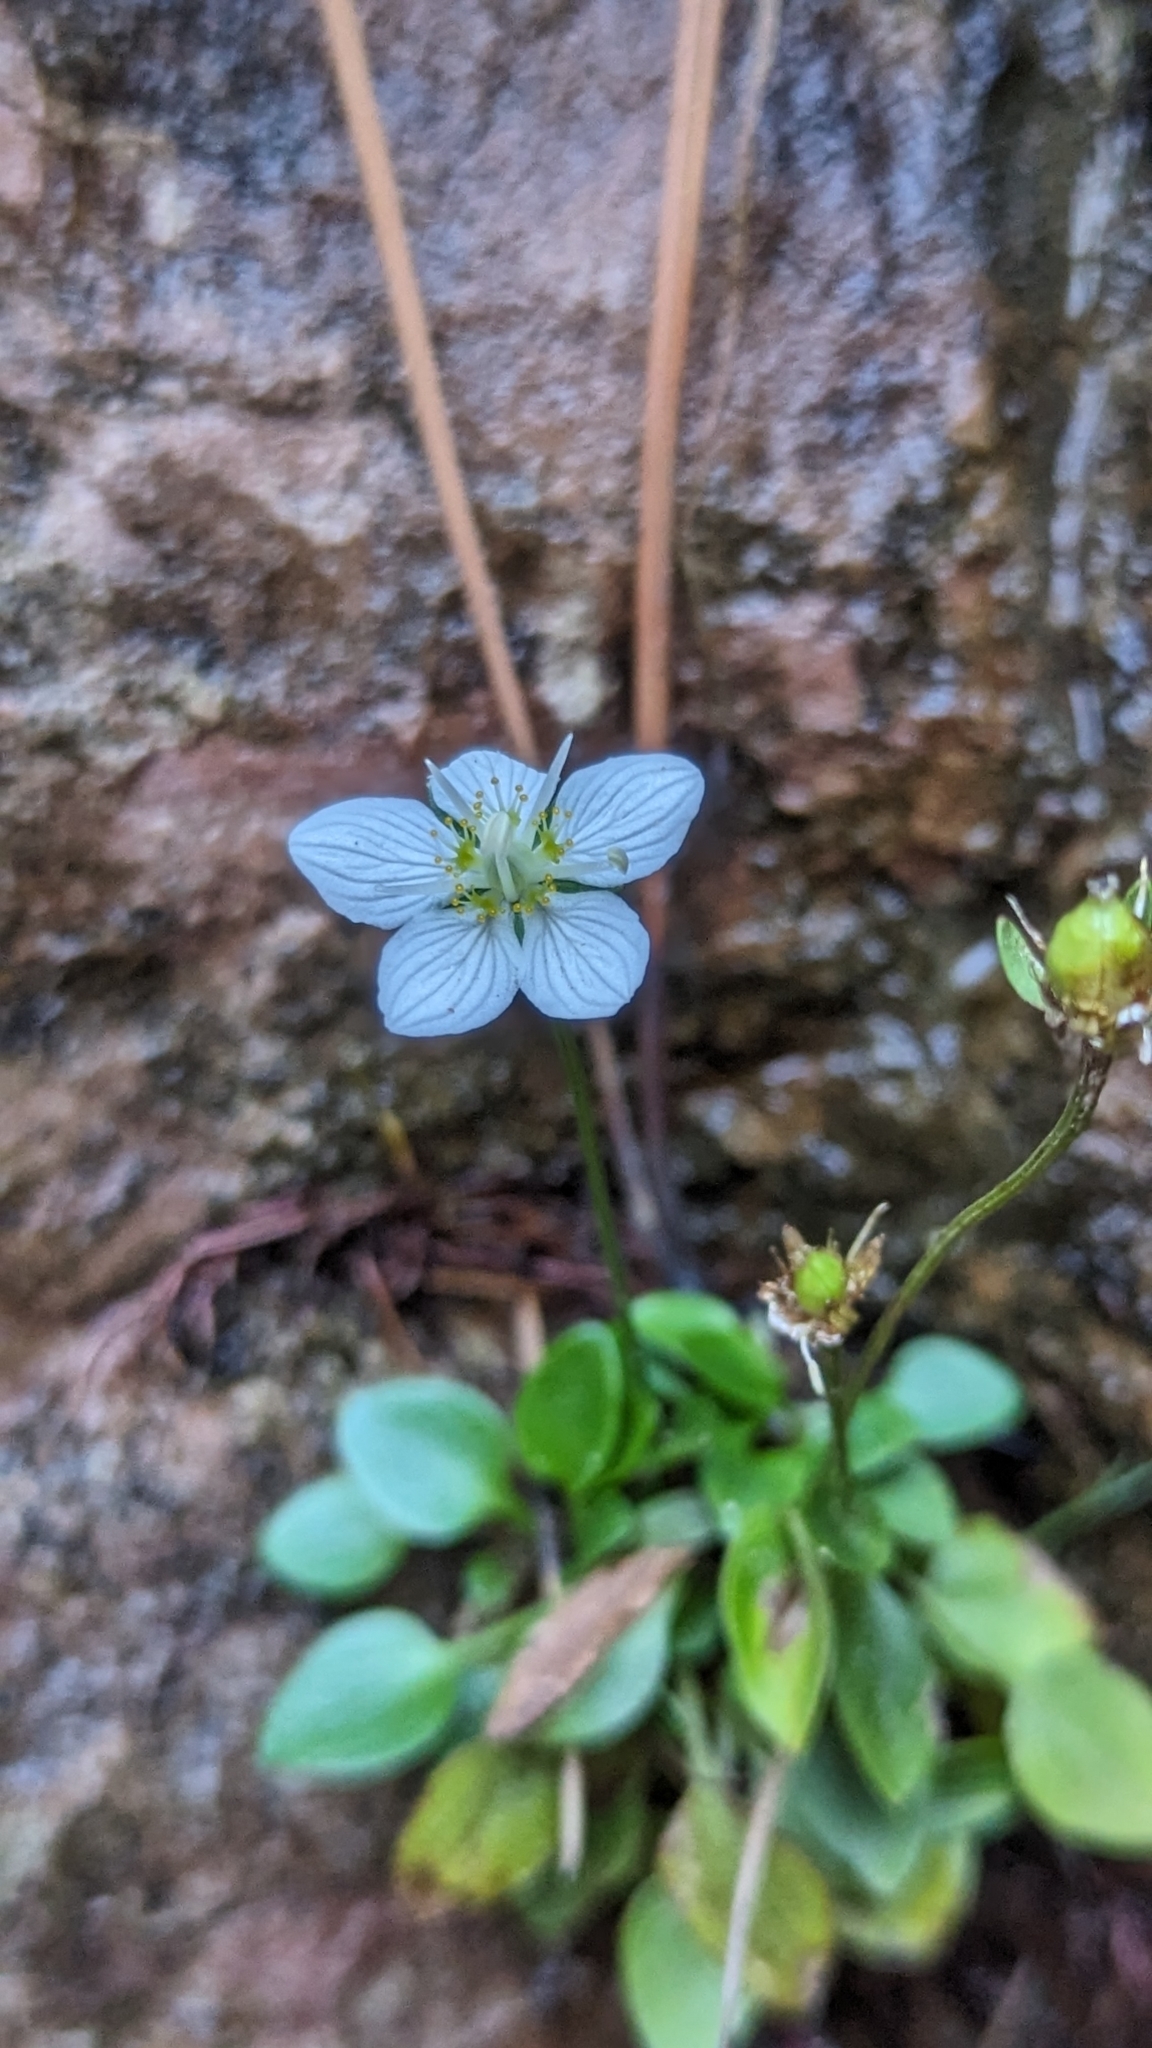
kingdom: Plantae
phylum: Tracheophyta
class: Magnoliopsida
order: Celastrales
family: Parnassiaceae
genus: Parnassia
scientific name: Parnassia palustris
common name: Grass-of-parnassus
